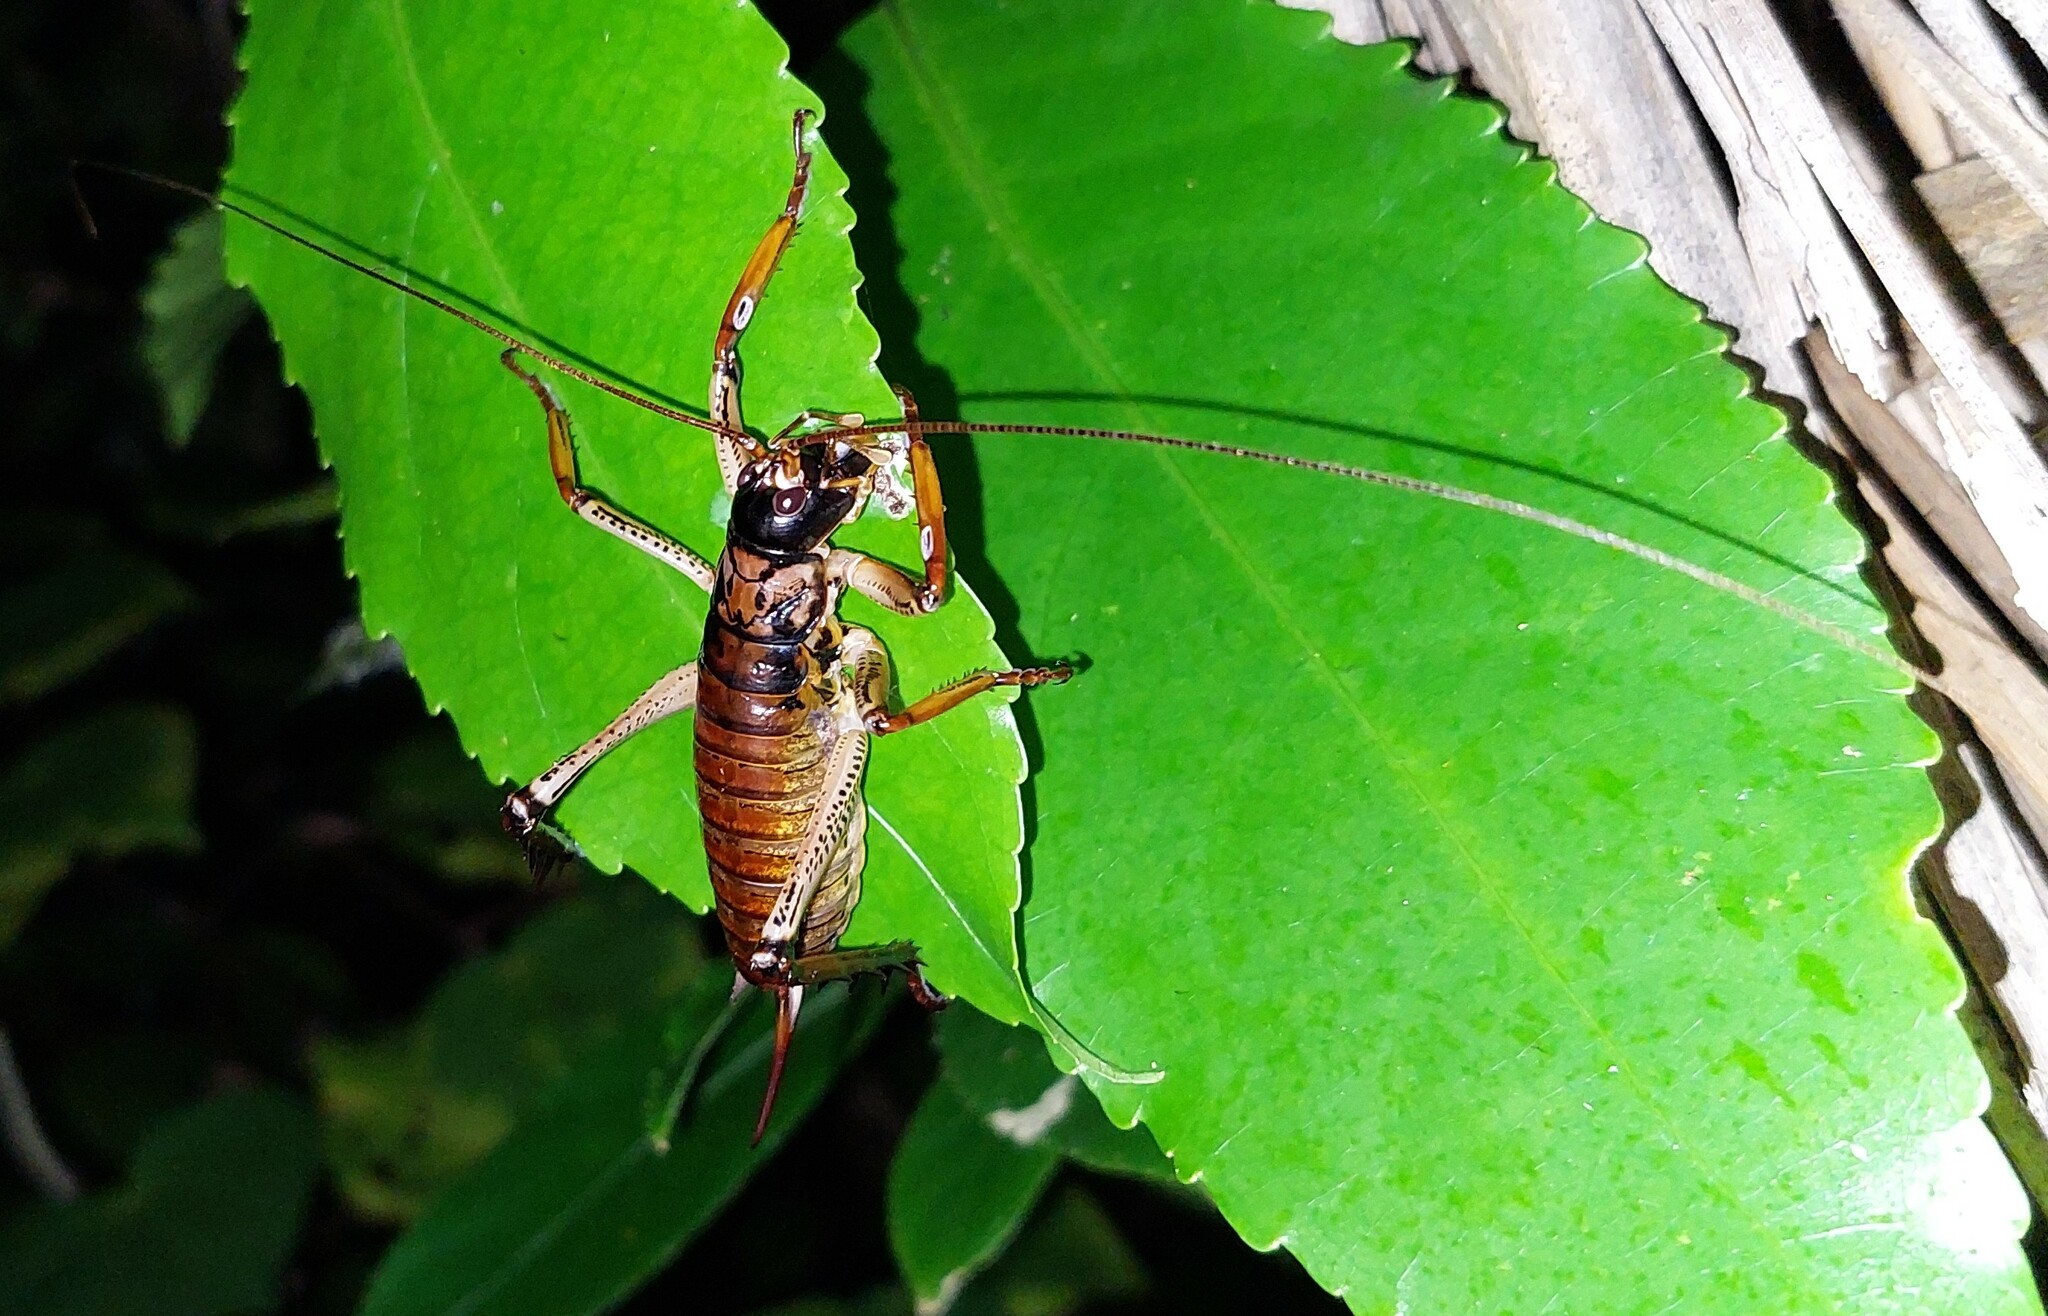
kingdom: Animalia
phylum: Arthropoda
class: Insecta
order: Orthoptera
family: Anostostomatidae
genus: Hemideina
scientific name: Hemideina thoracica
